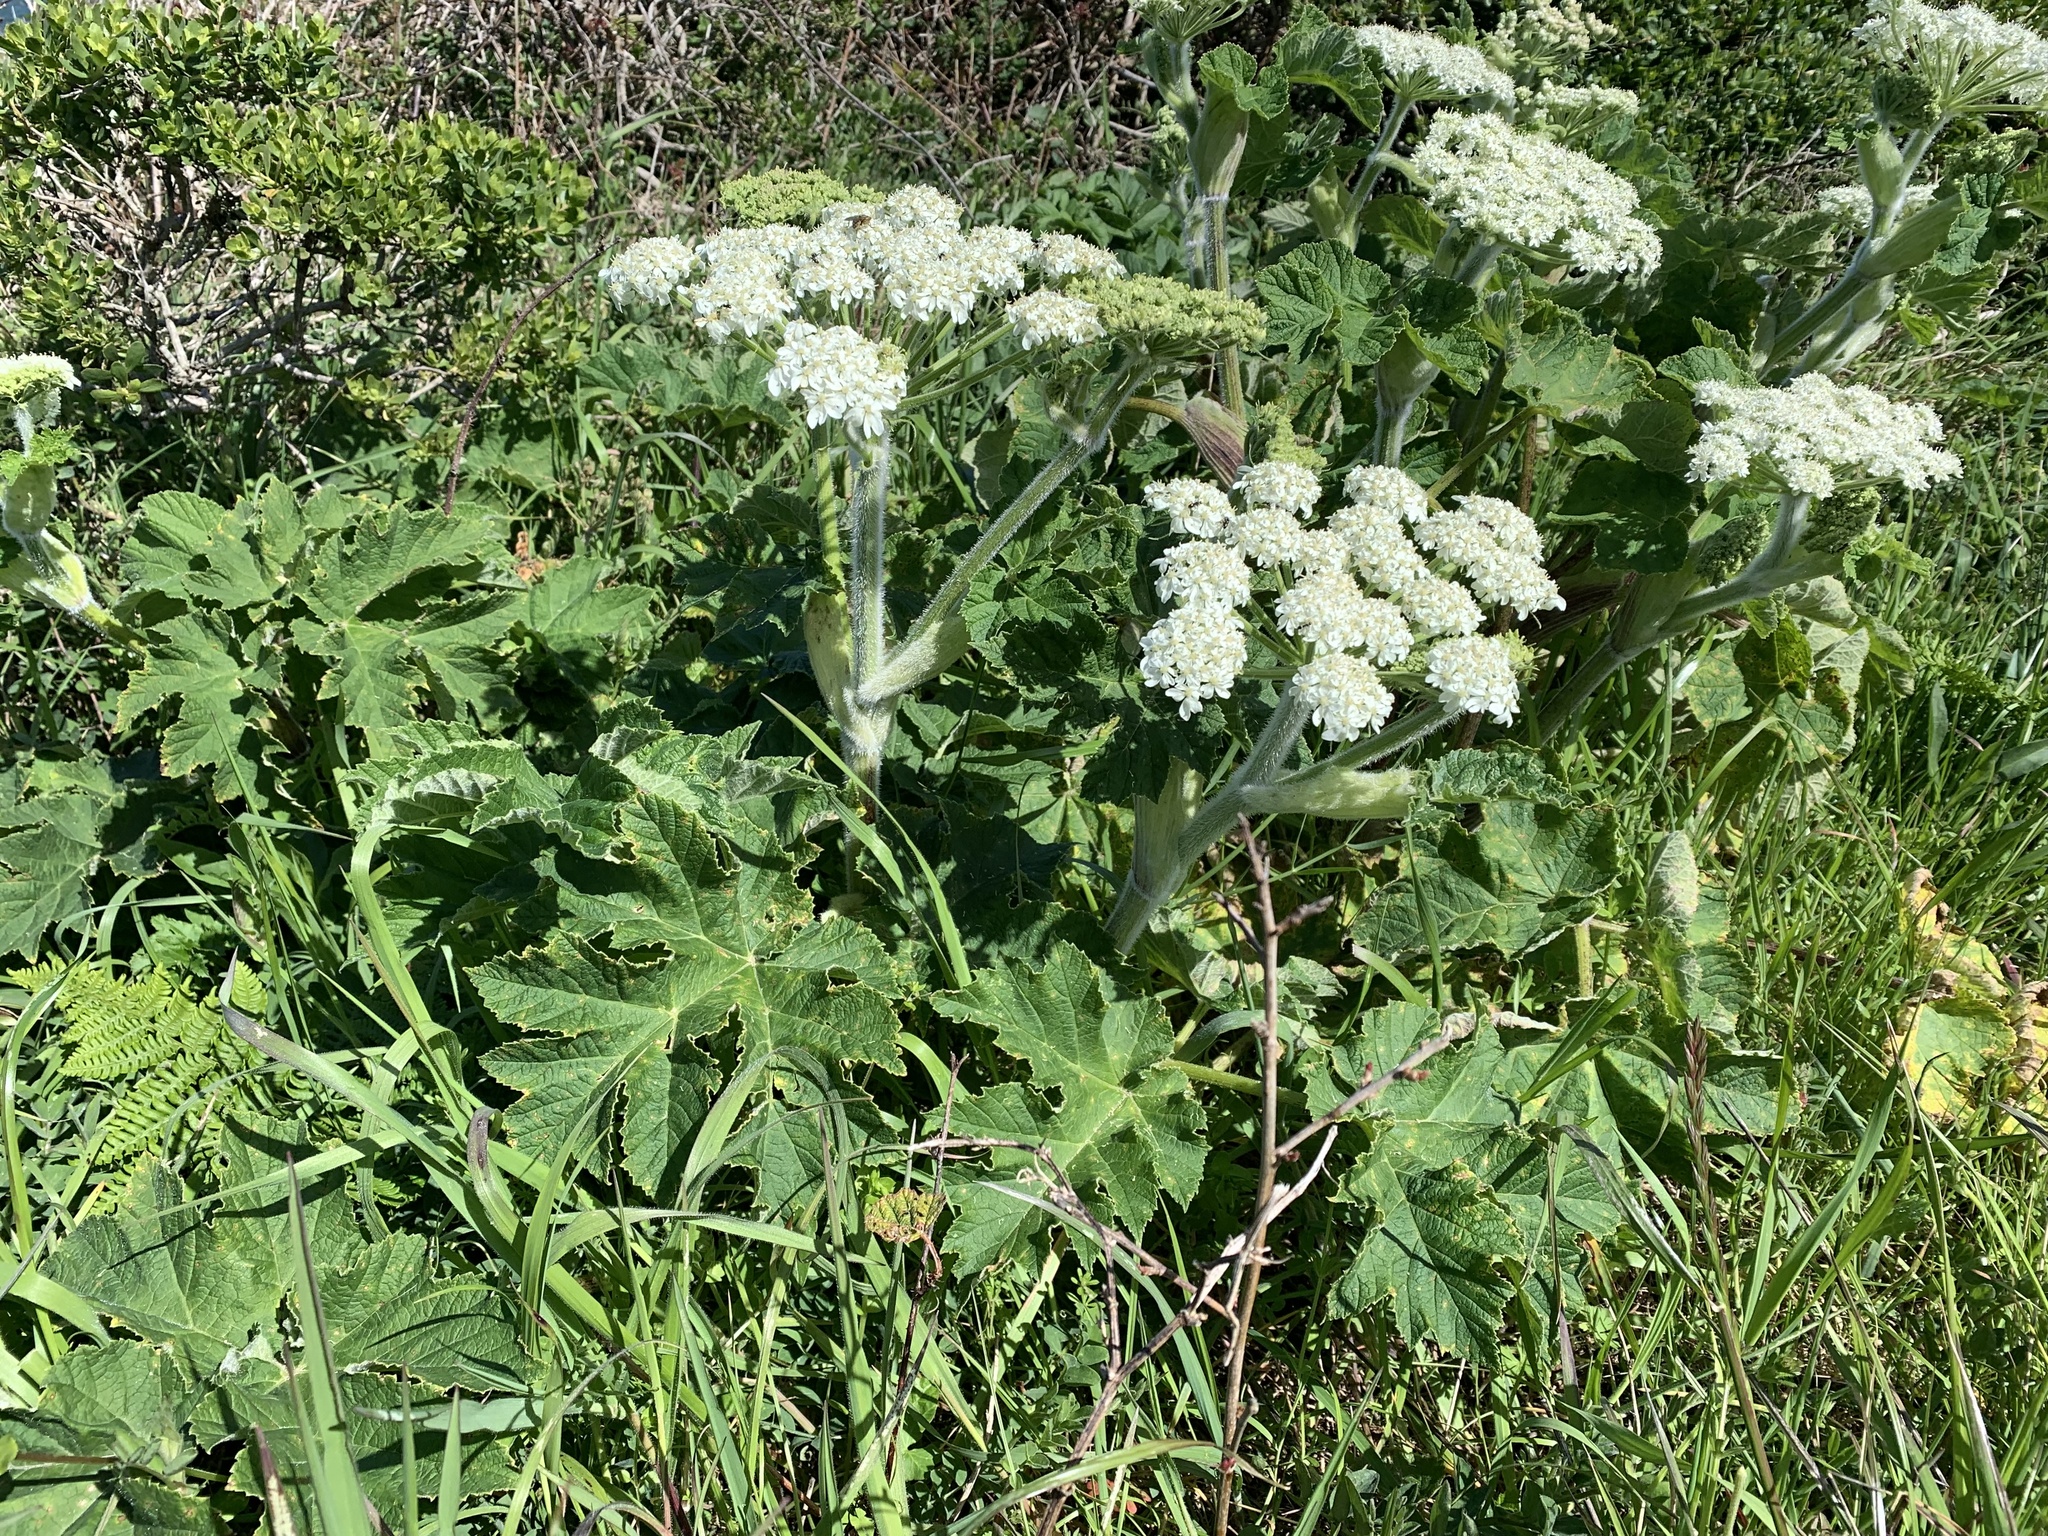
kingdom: Plantae
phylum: Tracheophyta
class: Magnoliopsida
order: Apiales
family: Apiaceae
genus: Heracleum
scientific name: Heracleum maximum
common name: American cow parsnip
